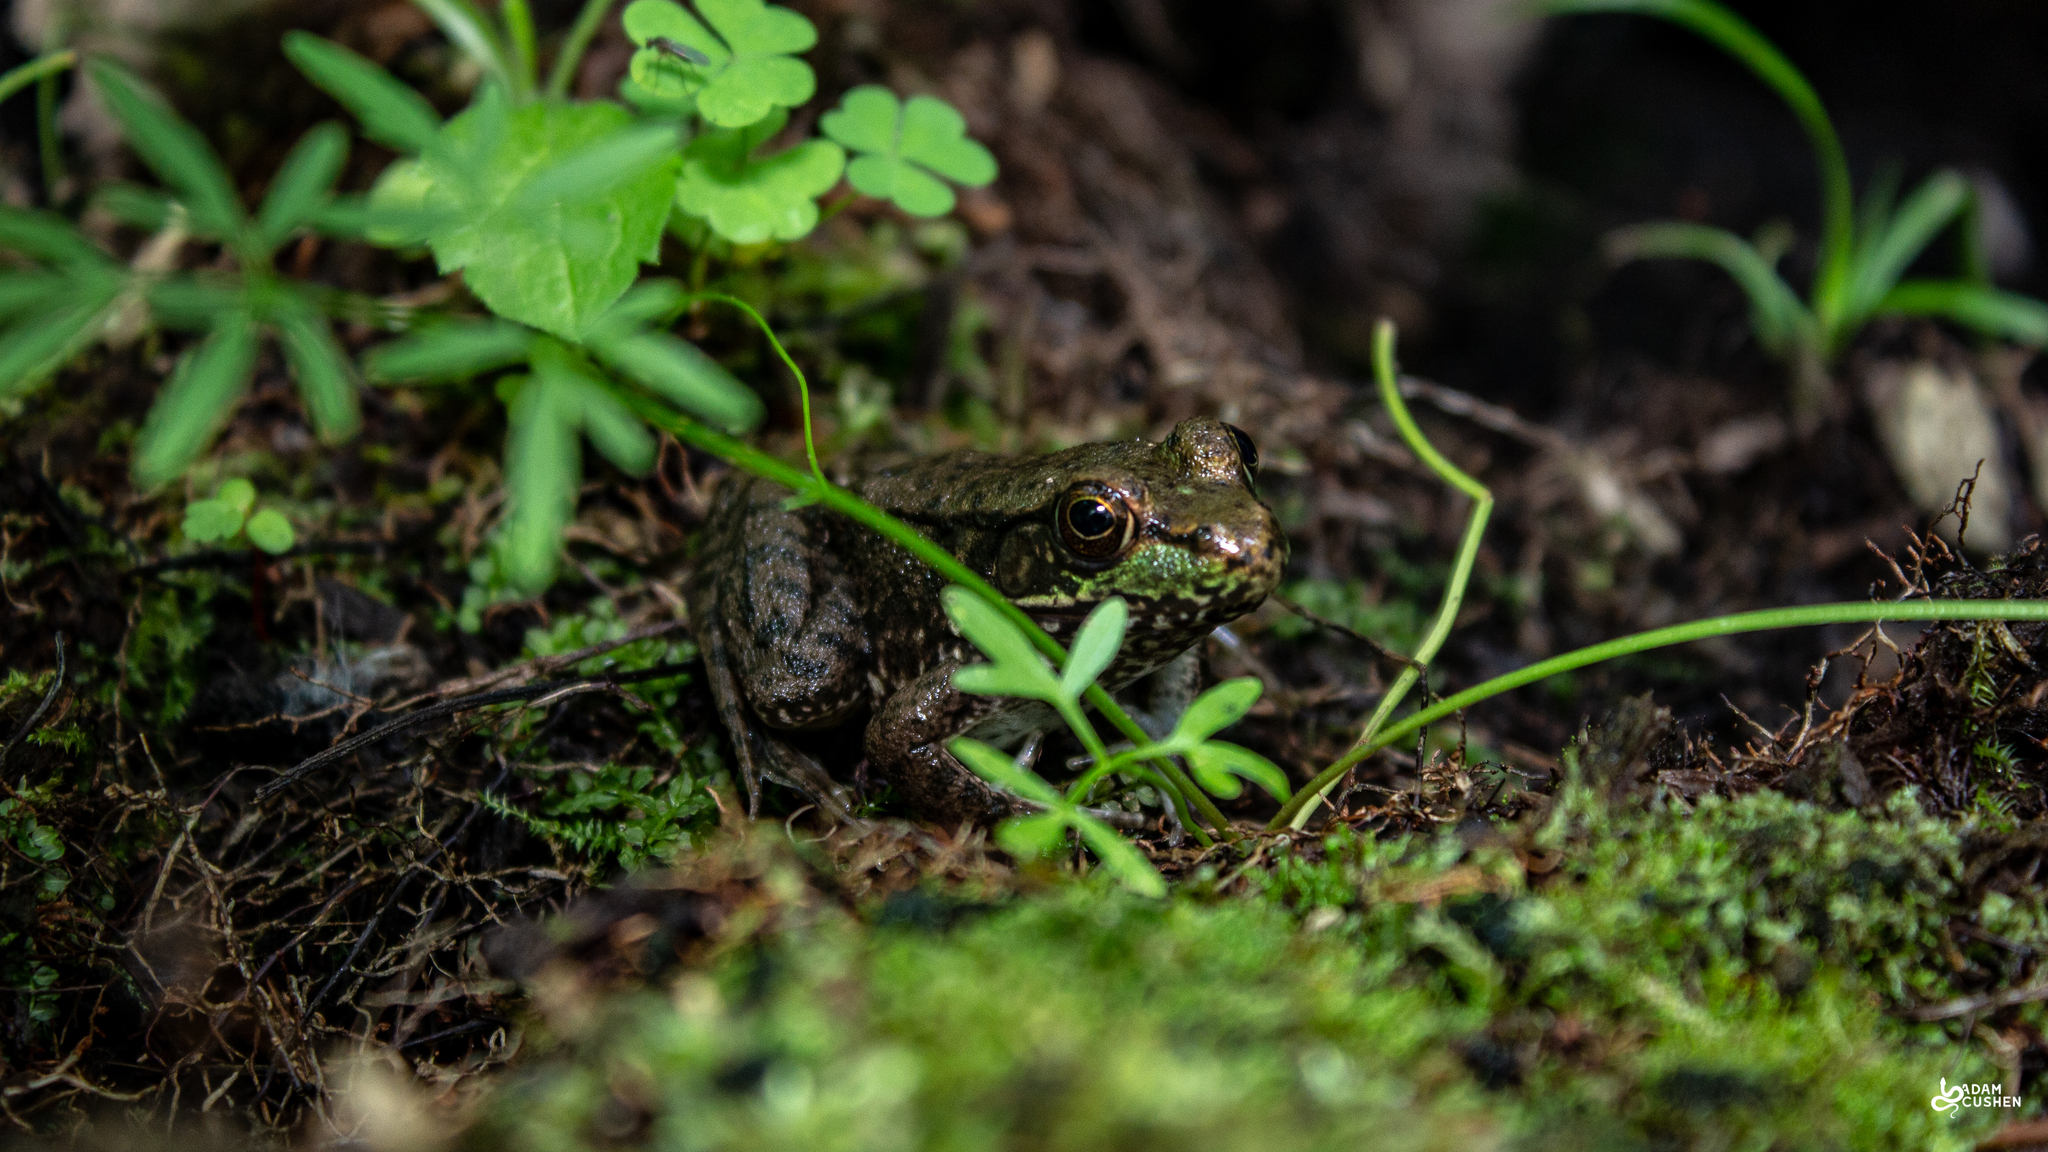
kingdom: Animalia
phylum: Chordata
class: Amphibia
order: Anura
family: Ranidae
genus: Lithobates
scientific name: Lithobates clamitans
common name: Green frog
